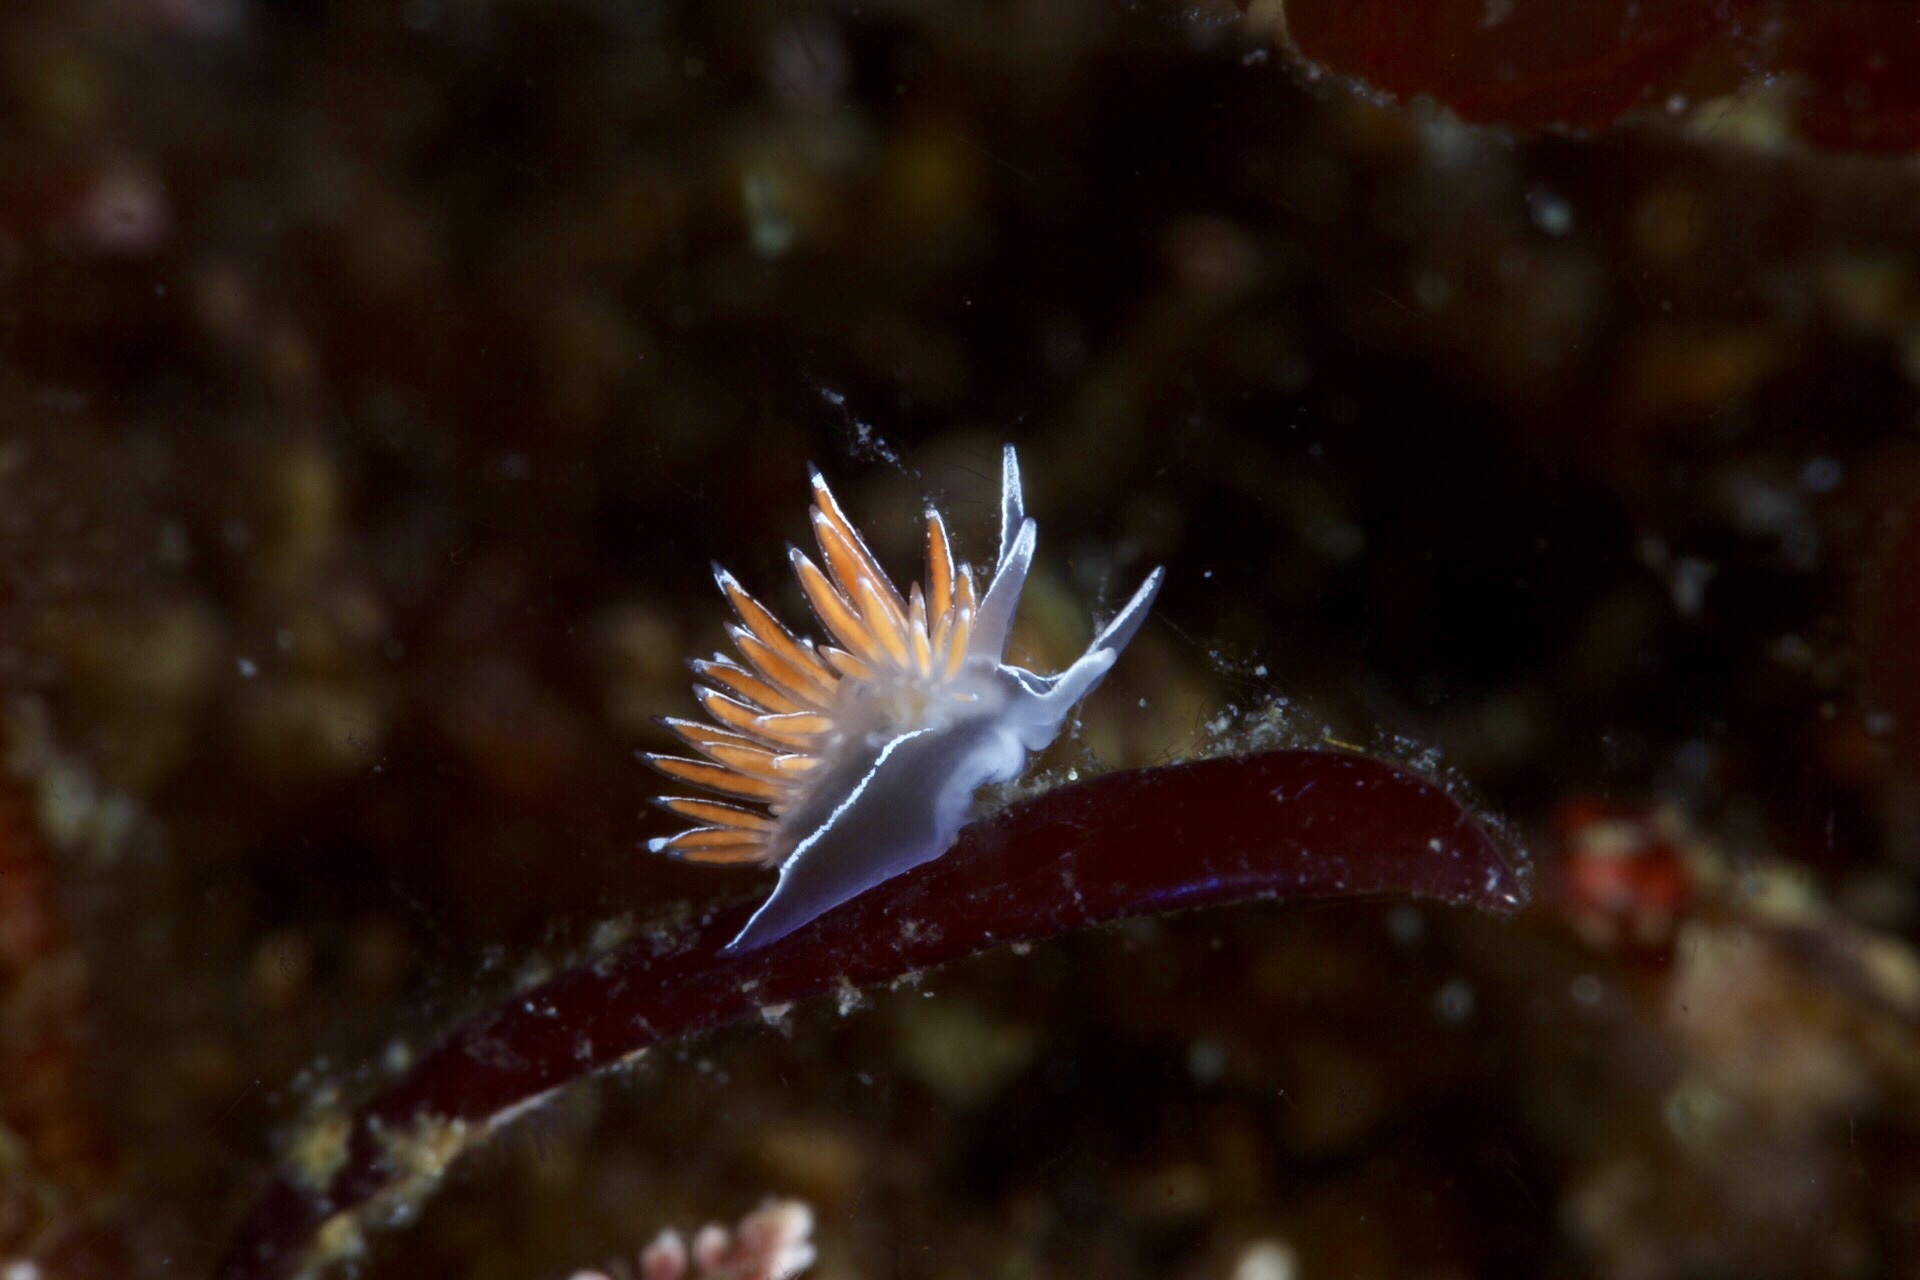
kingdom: Animalia
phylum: Mollusca
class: Gastropoda
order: Nudibranchia
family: Coryphellidae
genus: Coryphella
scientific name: Coryphella lineata
